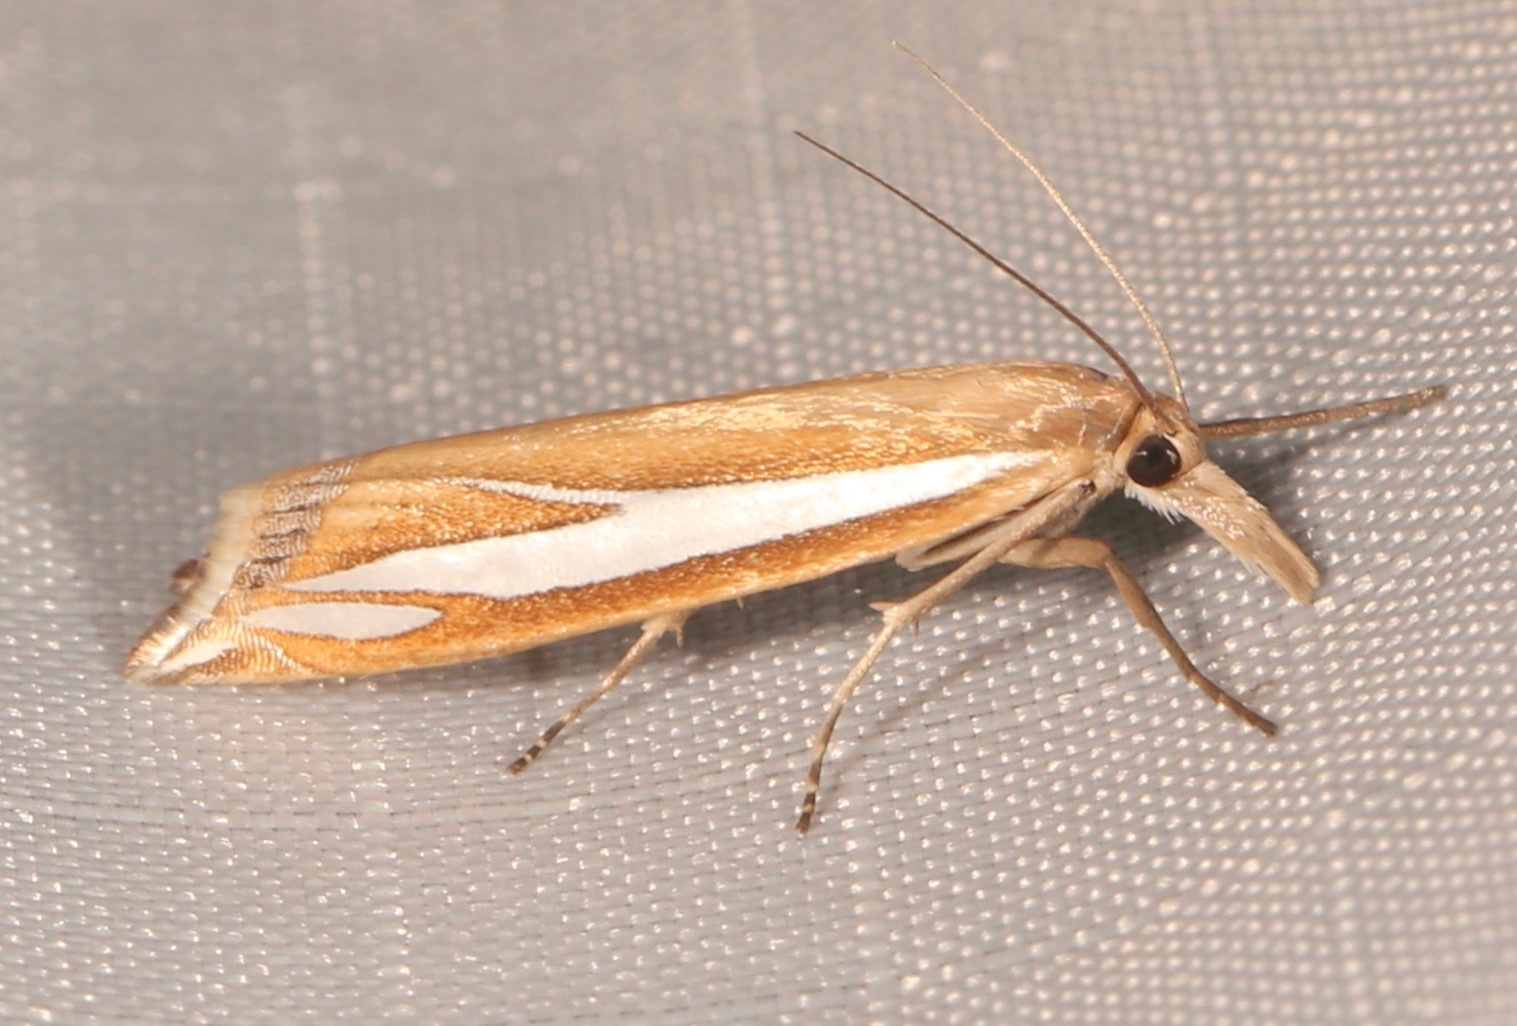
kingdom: Animalia
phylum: Arthropoda
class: Insecta
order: Lepidoptera
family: Crambidae
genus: Crambus
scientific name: Crambus satrapellus
